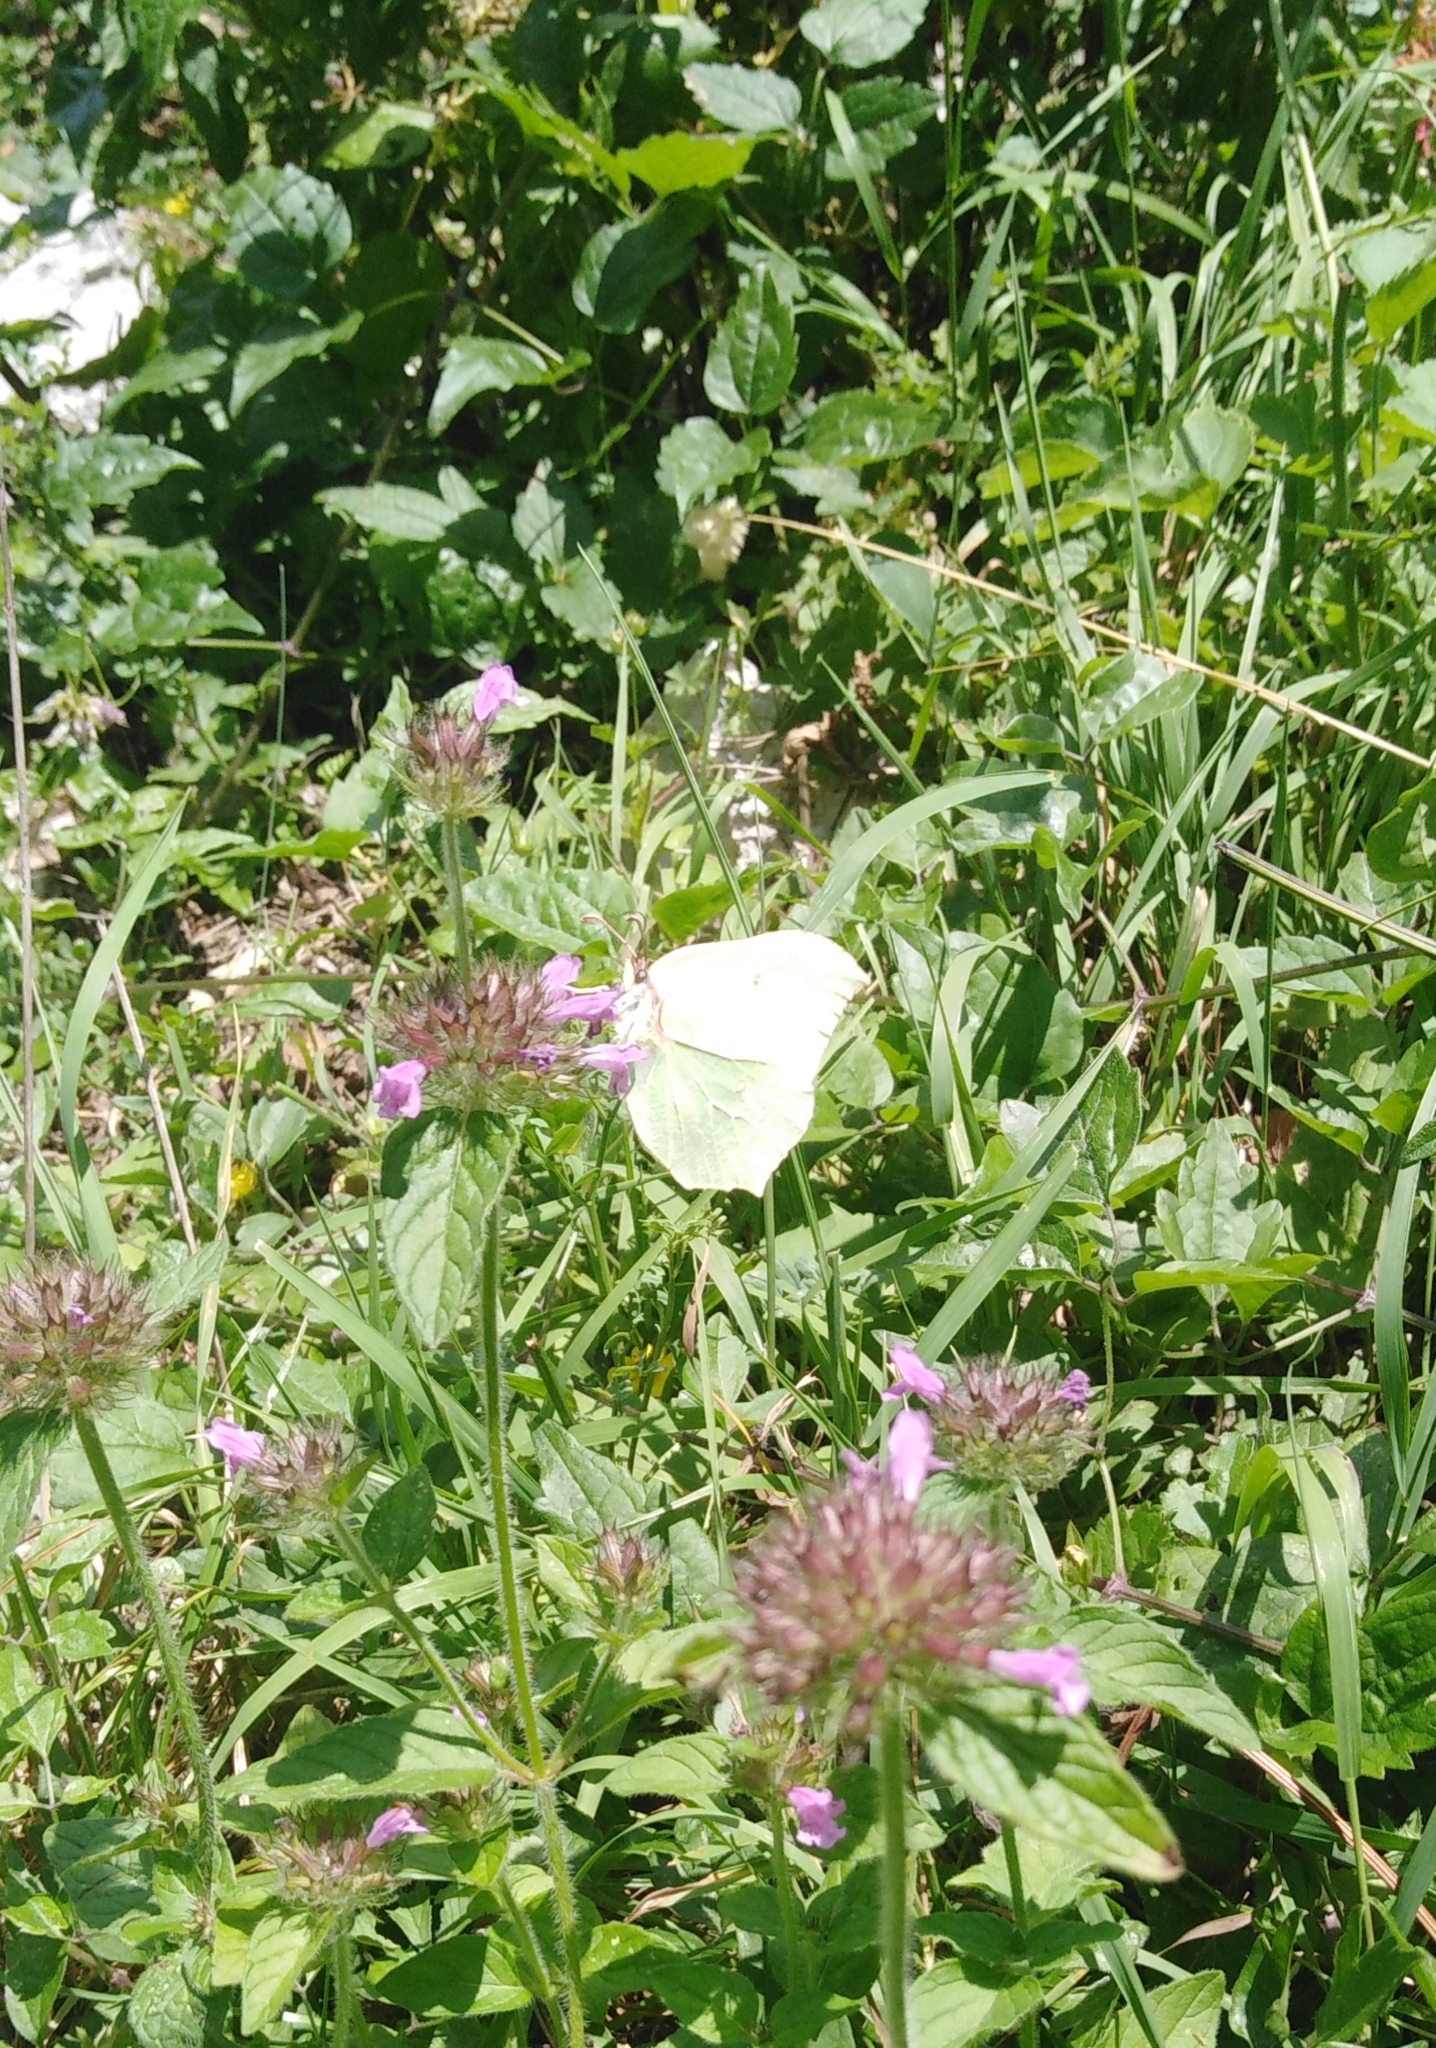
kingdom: Animalia
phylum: Arthropoda
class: Insecta
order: Lepidoptera
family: Pieridae
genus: Gonepteryx
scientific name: Gonepteryx rhamni
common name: Brimstone
